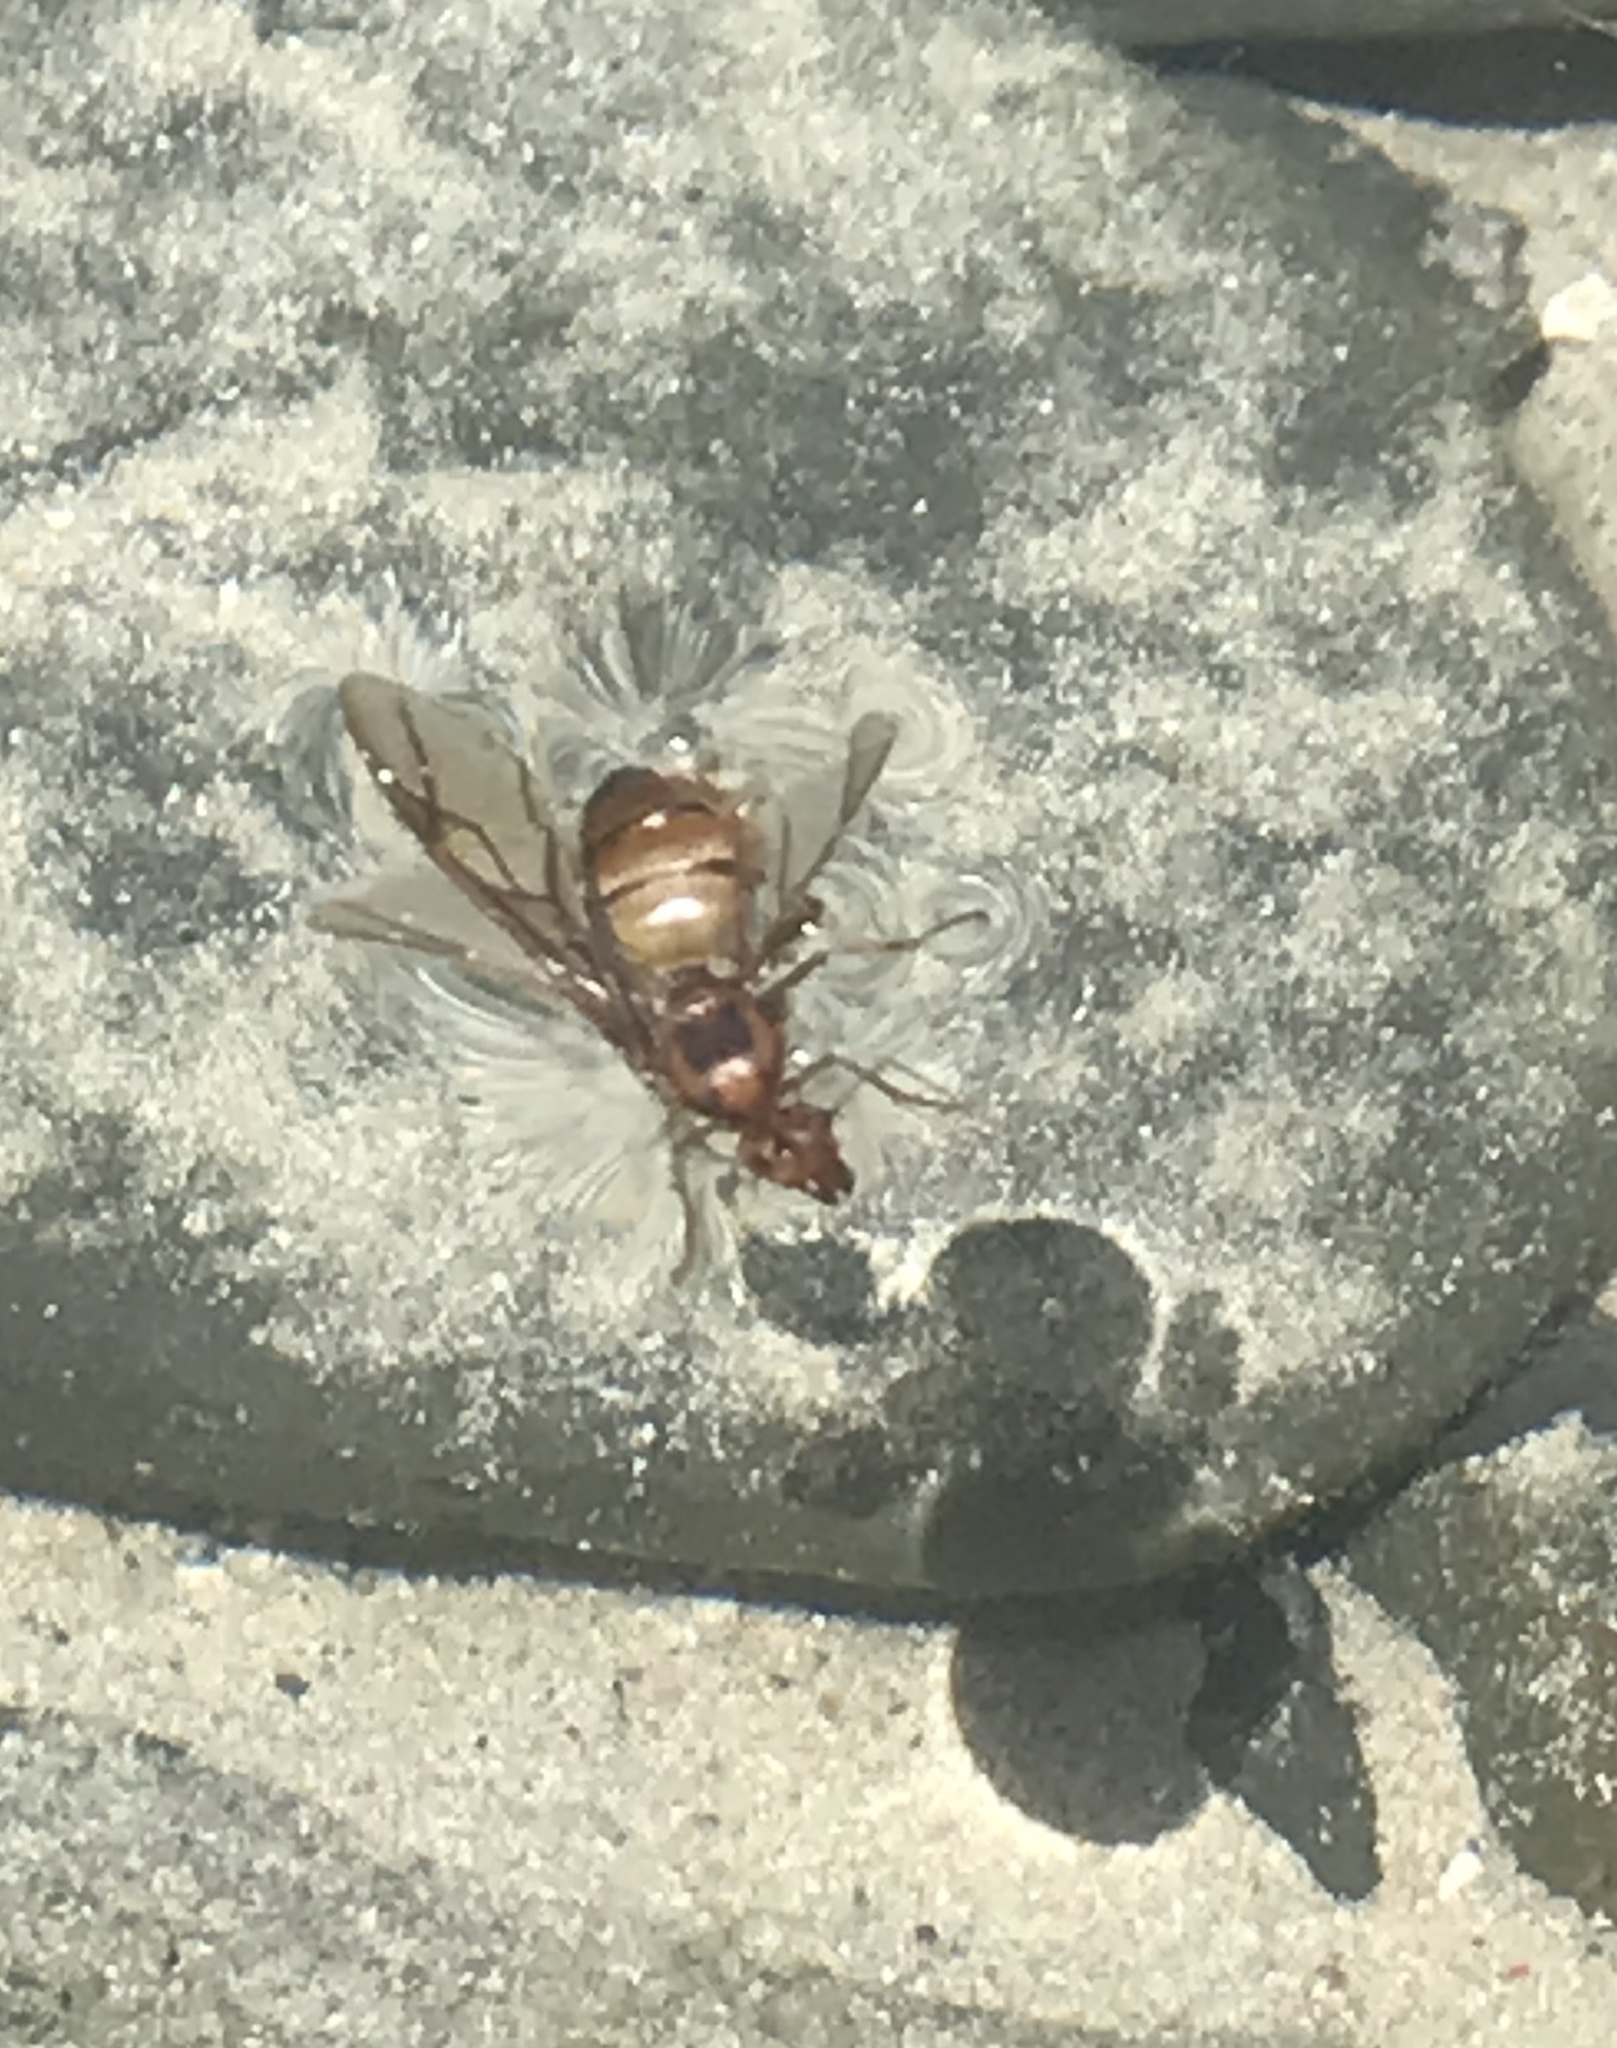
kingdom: Animalia
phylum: Arthropoda
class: Insecta
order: Hymenoptera
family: Formicidae
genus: Oecophylla
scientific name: Oecophylla smaragdina
